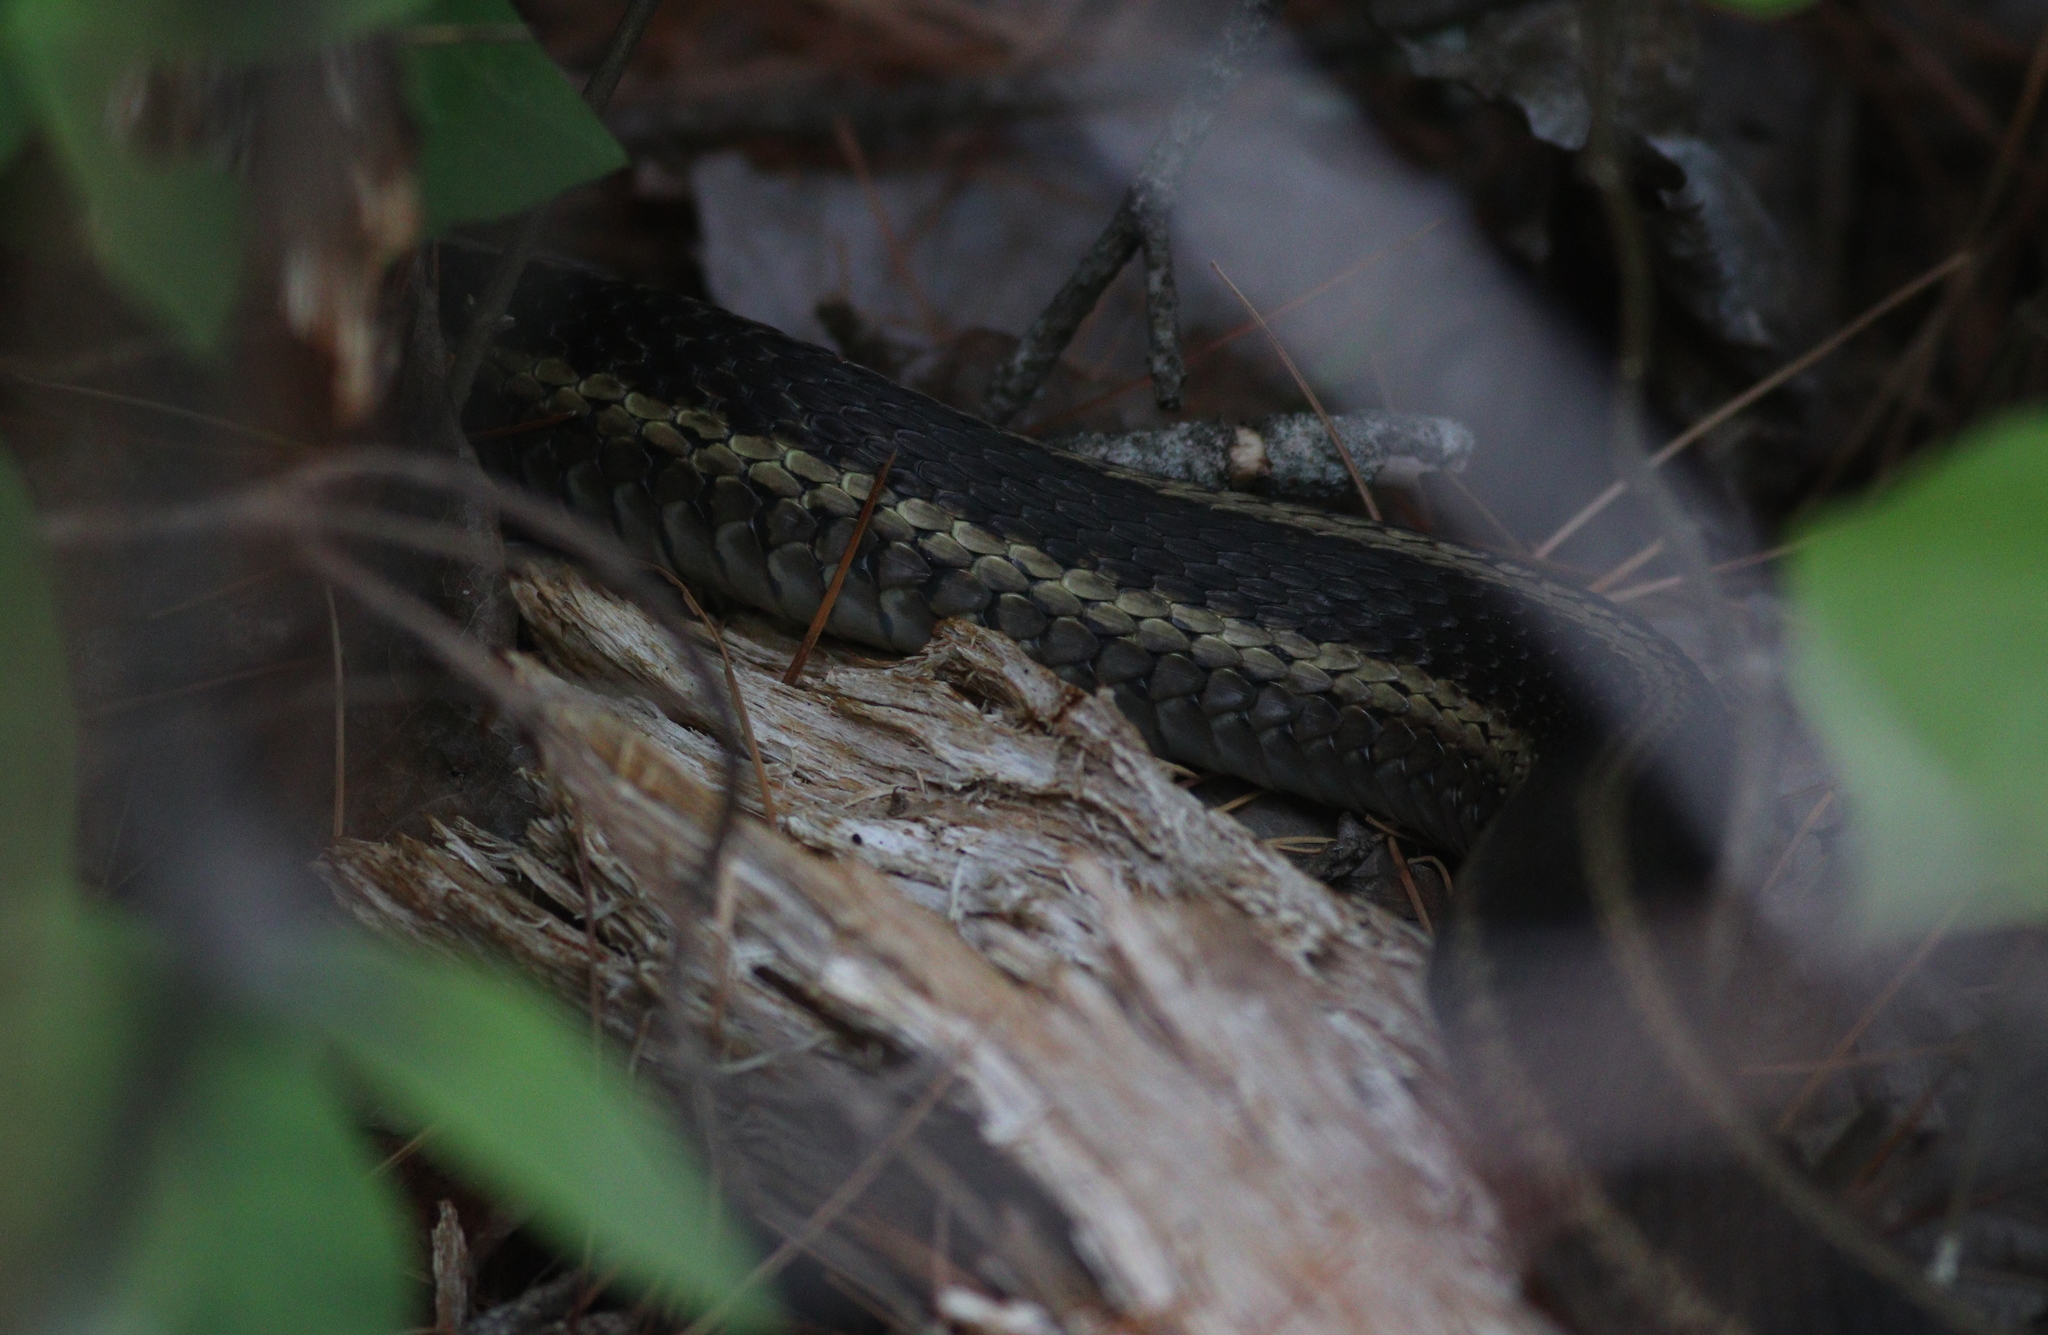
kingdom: Animalia
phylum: Chordata
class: Squamata
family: Colubridae
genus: Thamnophis
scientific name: Thamnophis sirtalis
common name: Common garter snake
